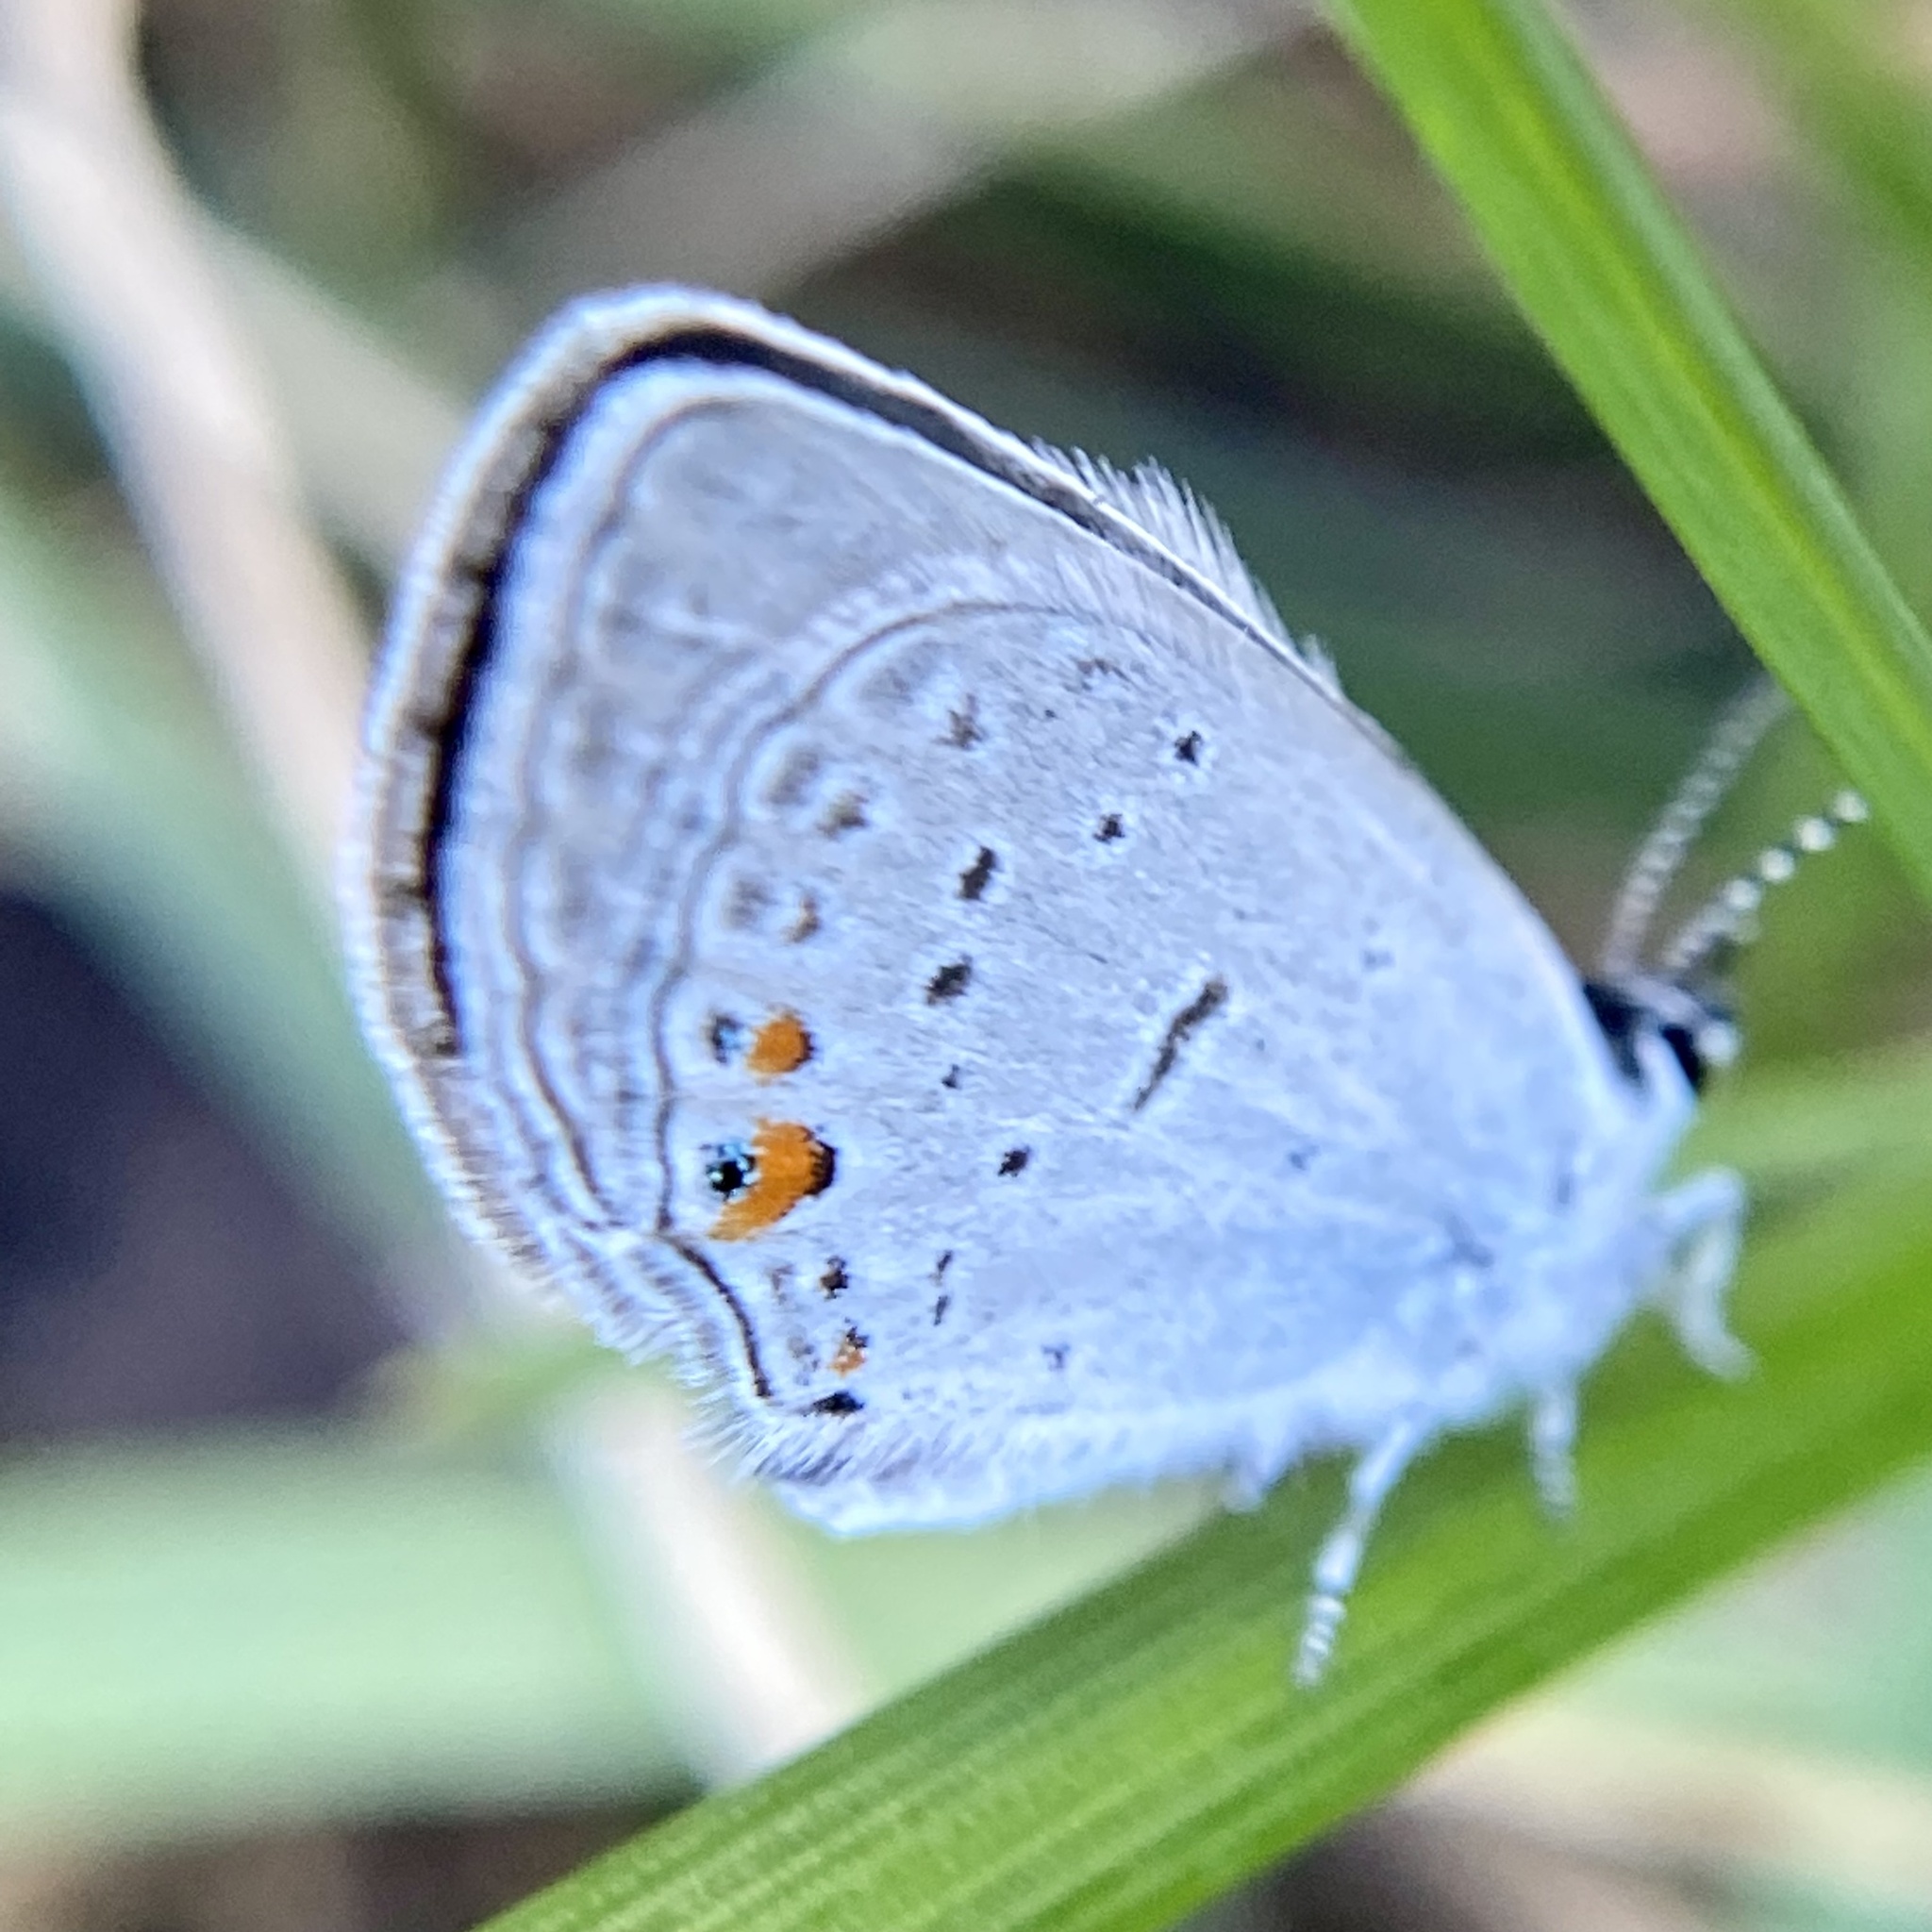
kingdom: Animalia
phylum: Arthropoda
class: Insecta
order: Lepidoptera
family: Lycaenidae
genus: Elkalyce
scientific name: Elkalyce comyntas
